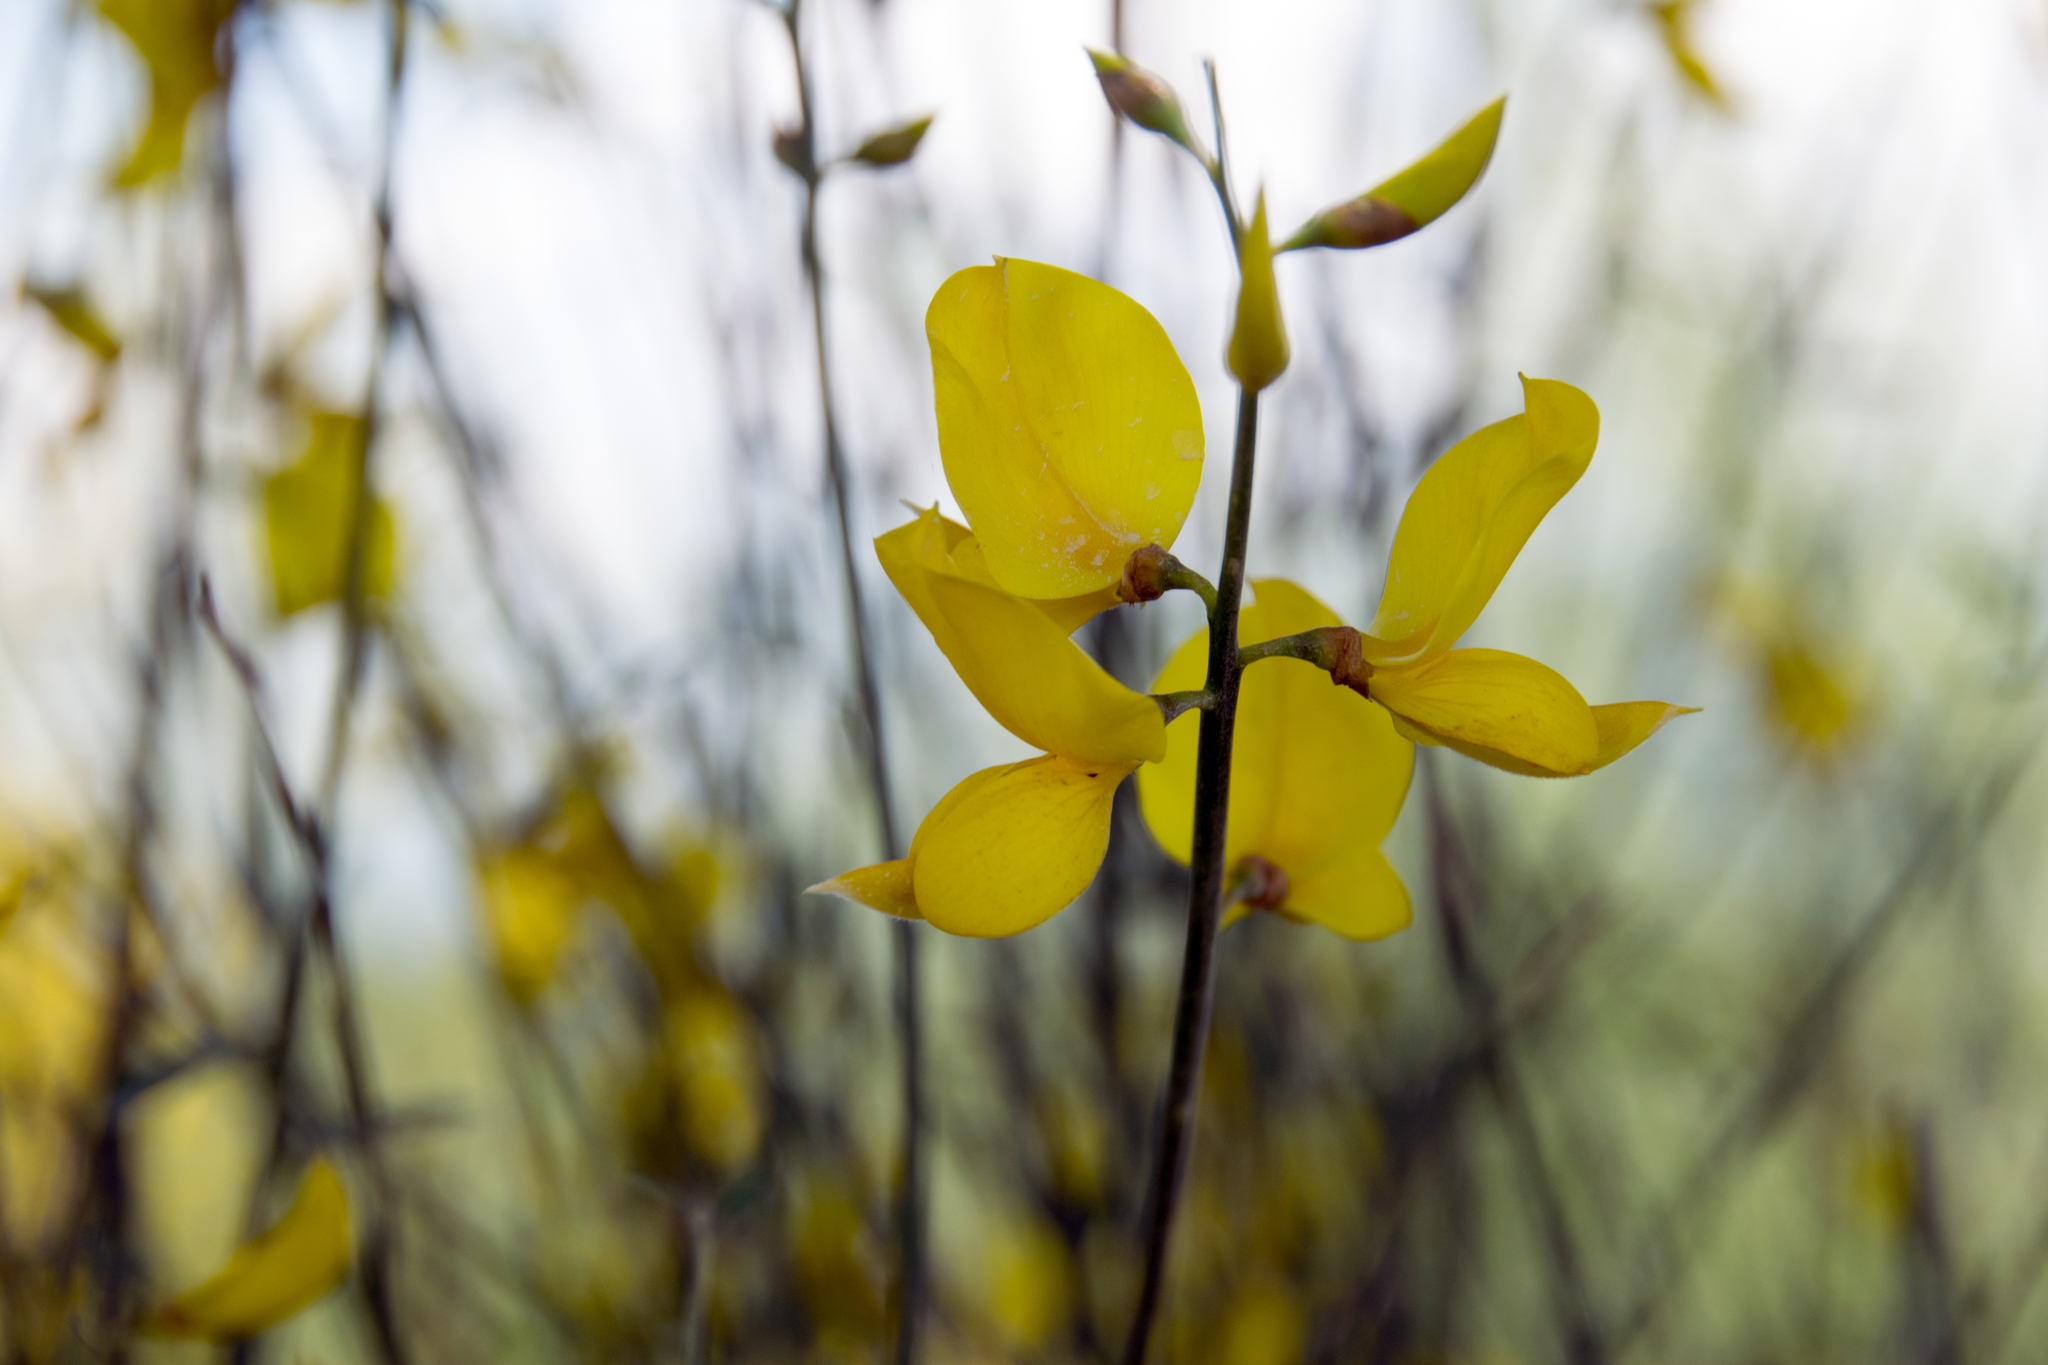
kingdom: Plantae
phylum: Tracheophyta
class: Magnoliopsida
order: Fabales
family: Fabaceae
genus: Spartium
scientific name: Spartium junceum
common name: Spanish broom
